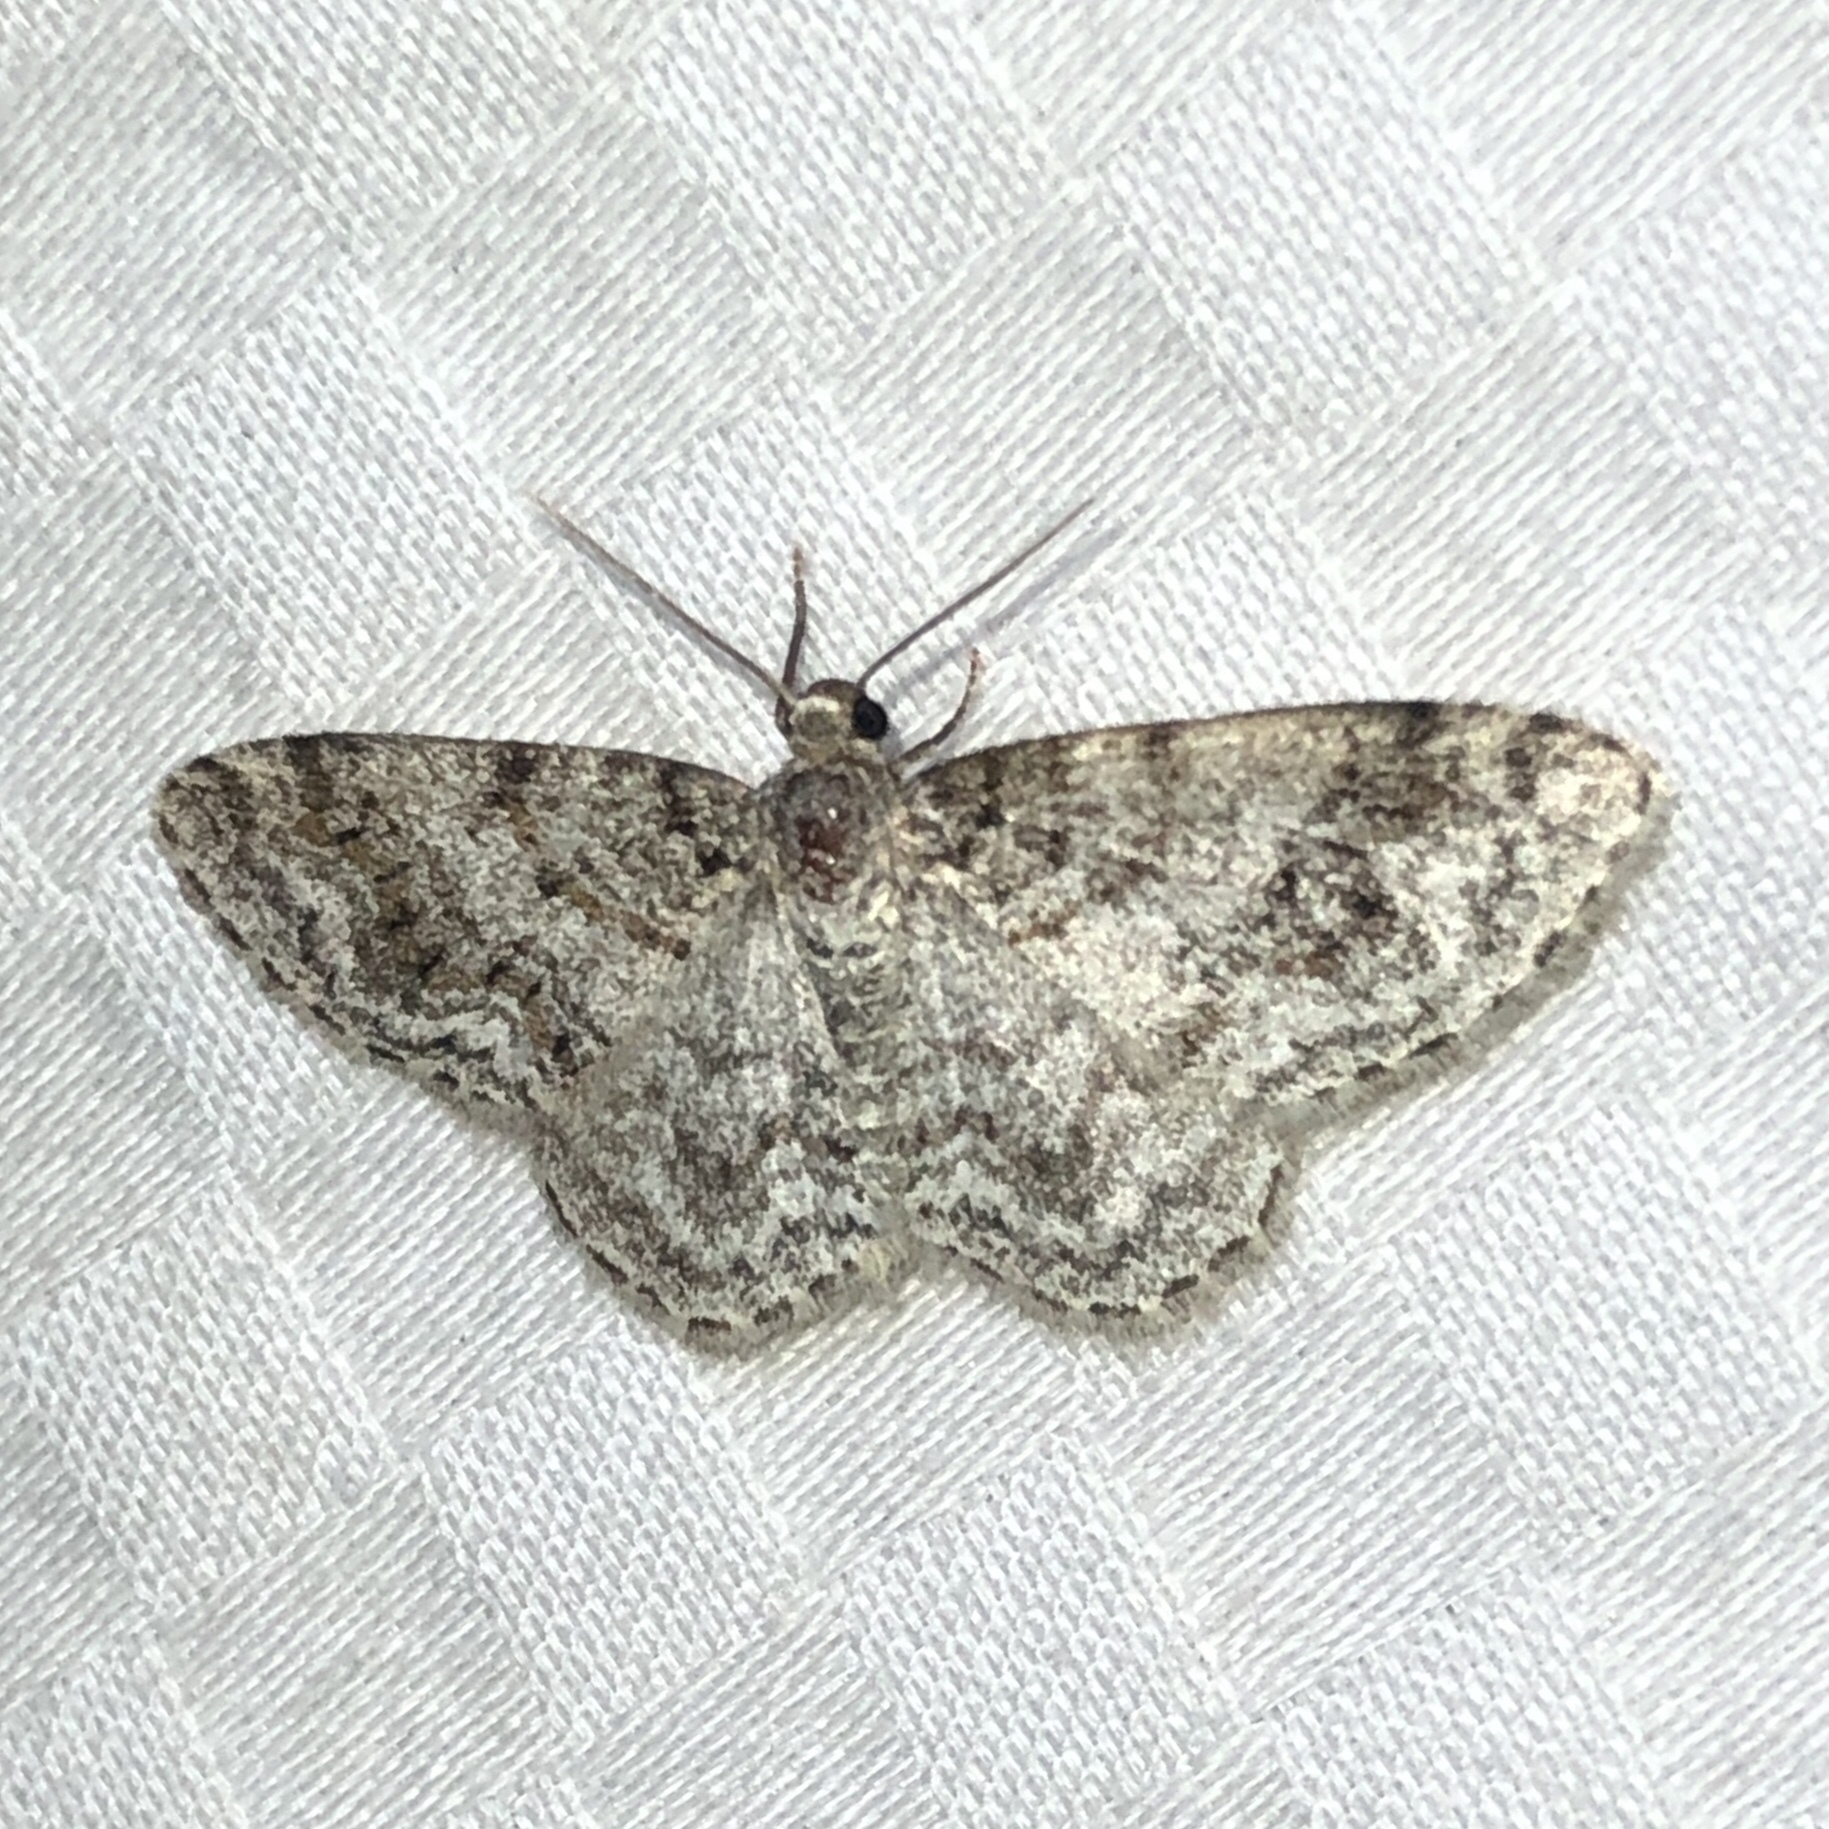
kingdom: Animalia
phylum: Arthropoda
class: Insecta
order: Lepidoptera
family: Geometridae
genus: Hydrelia
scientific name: Hydrelia inornata
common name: Unadorned carpet moth
